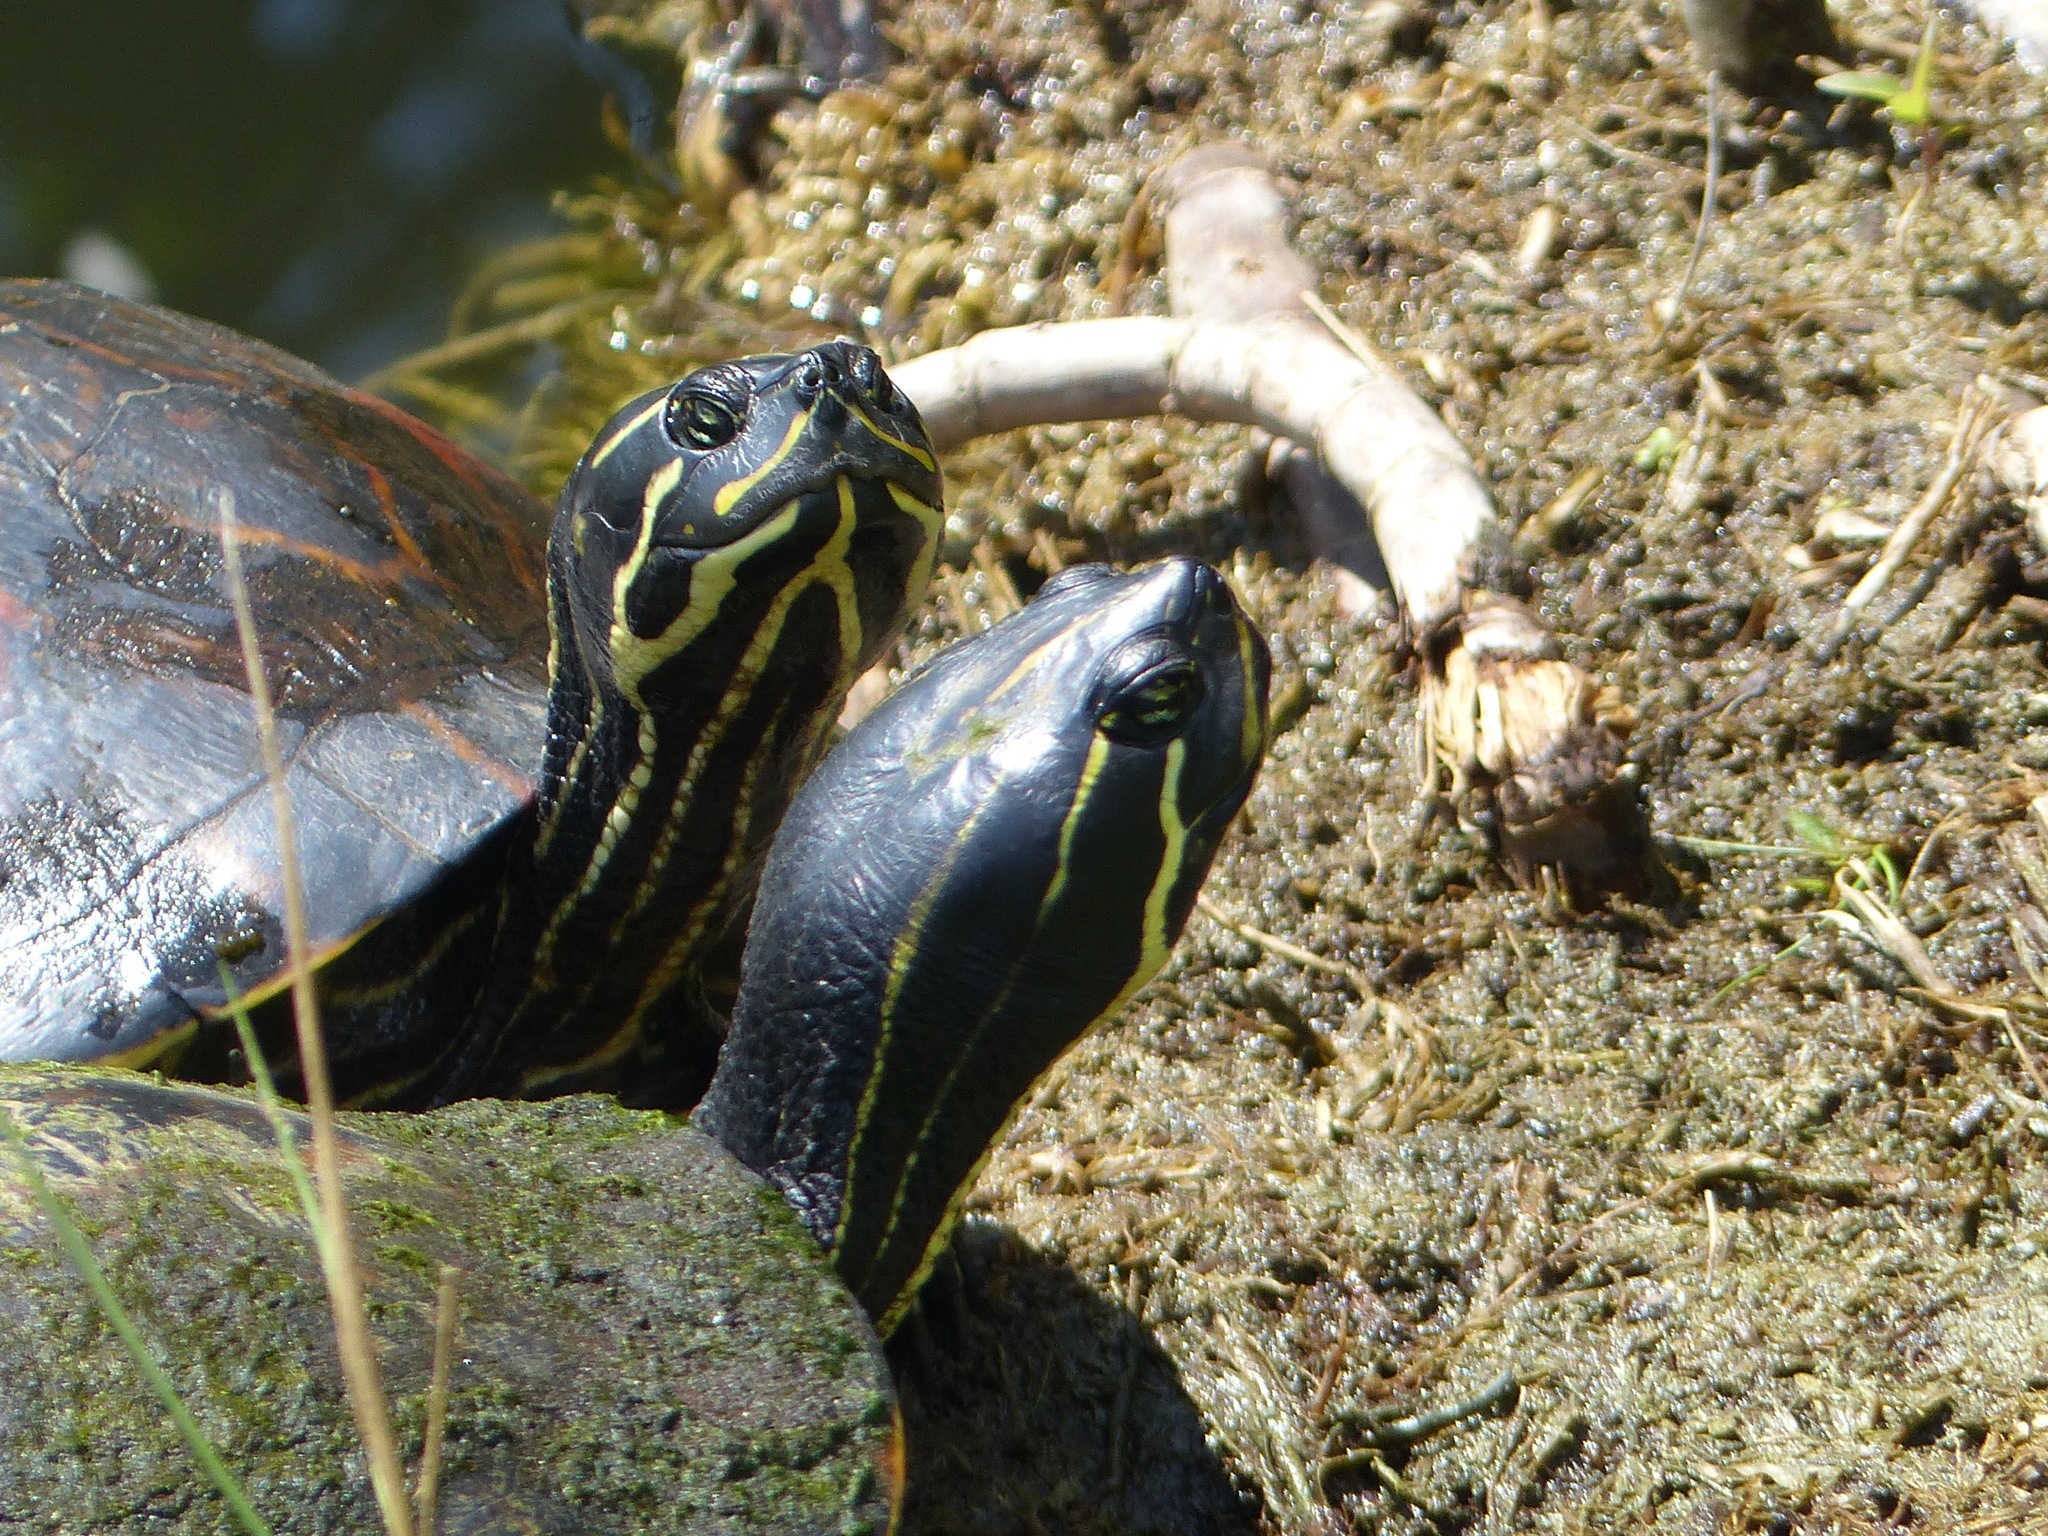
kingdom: Animalia
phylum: Chordata
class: Testudines
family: Emydidae
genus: Pseudemys
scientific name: Pseudemys nelsoni
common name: Florida red-bellied turtle
